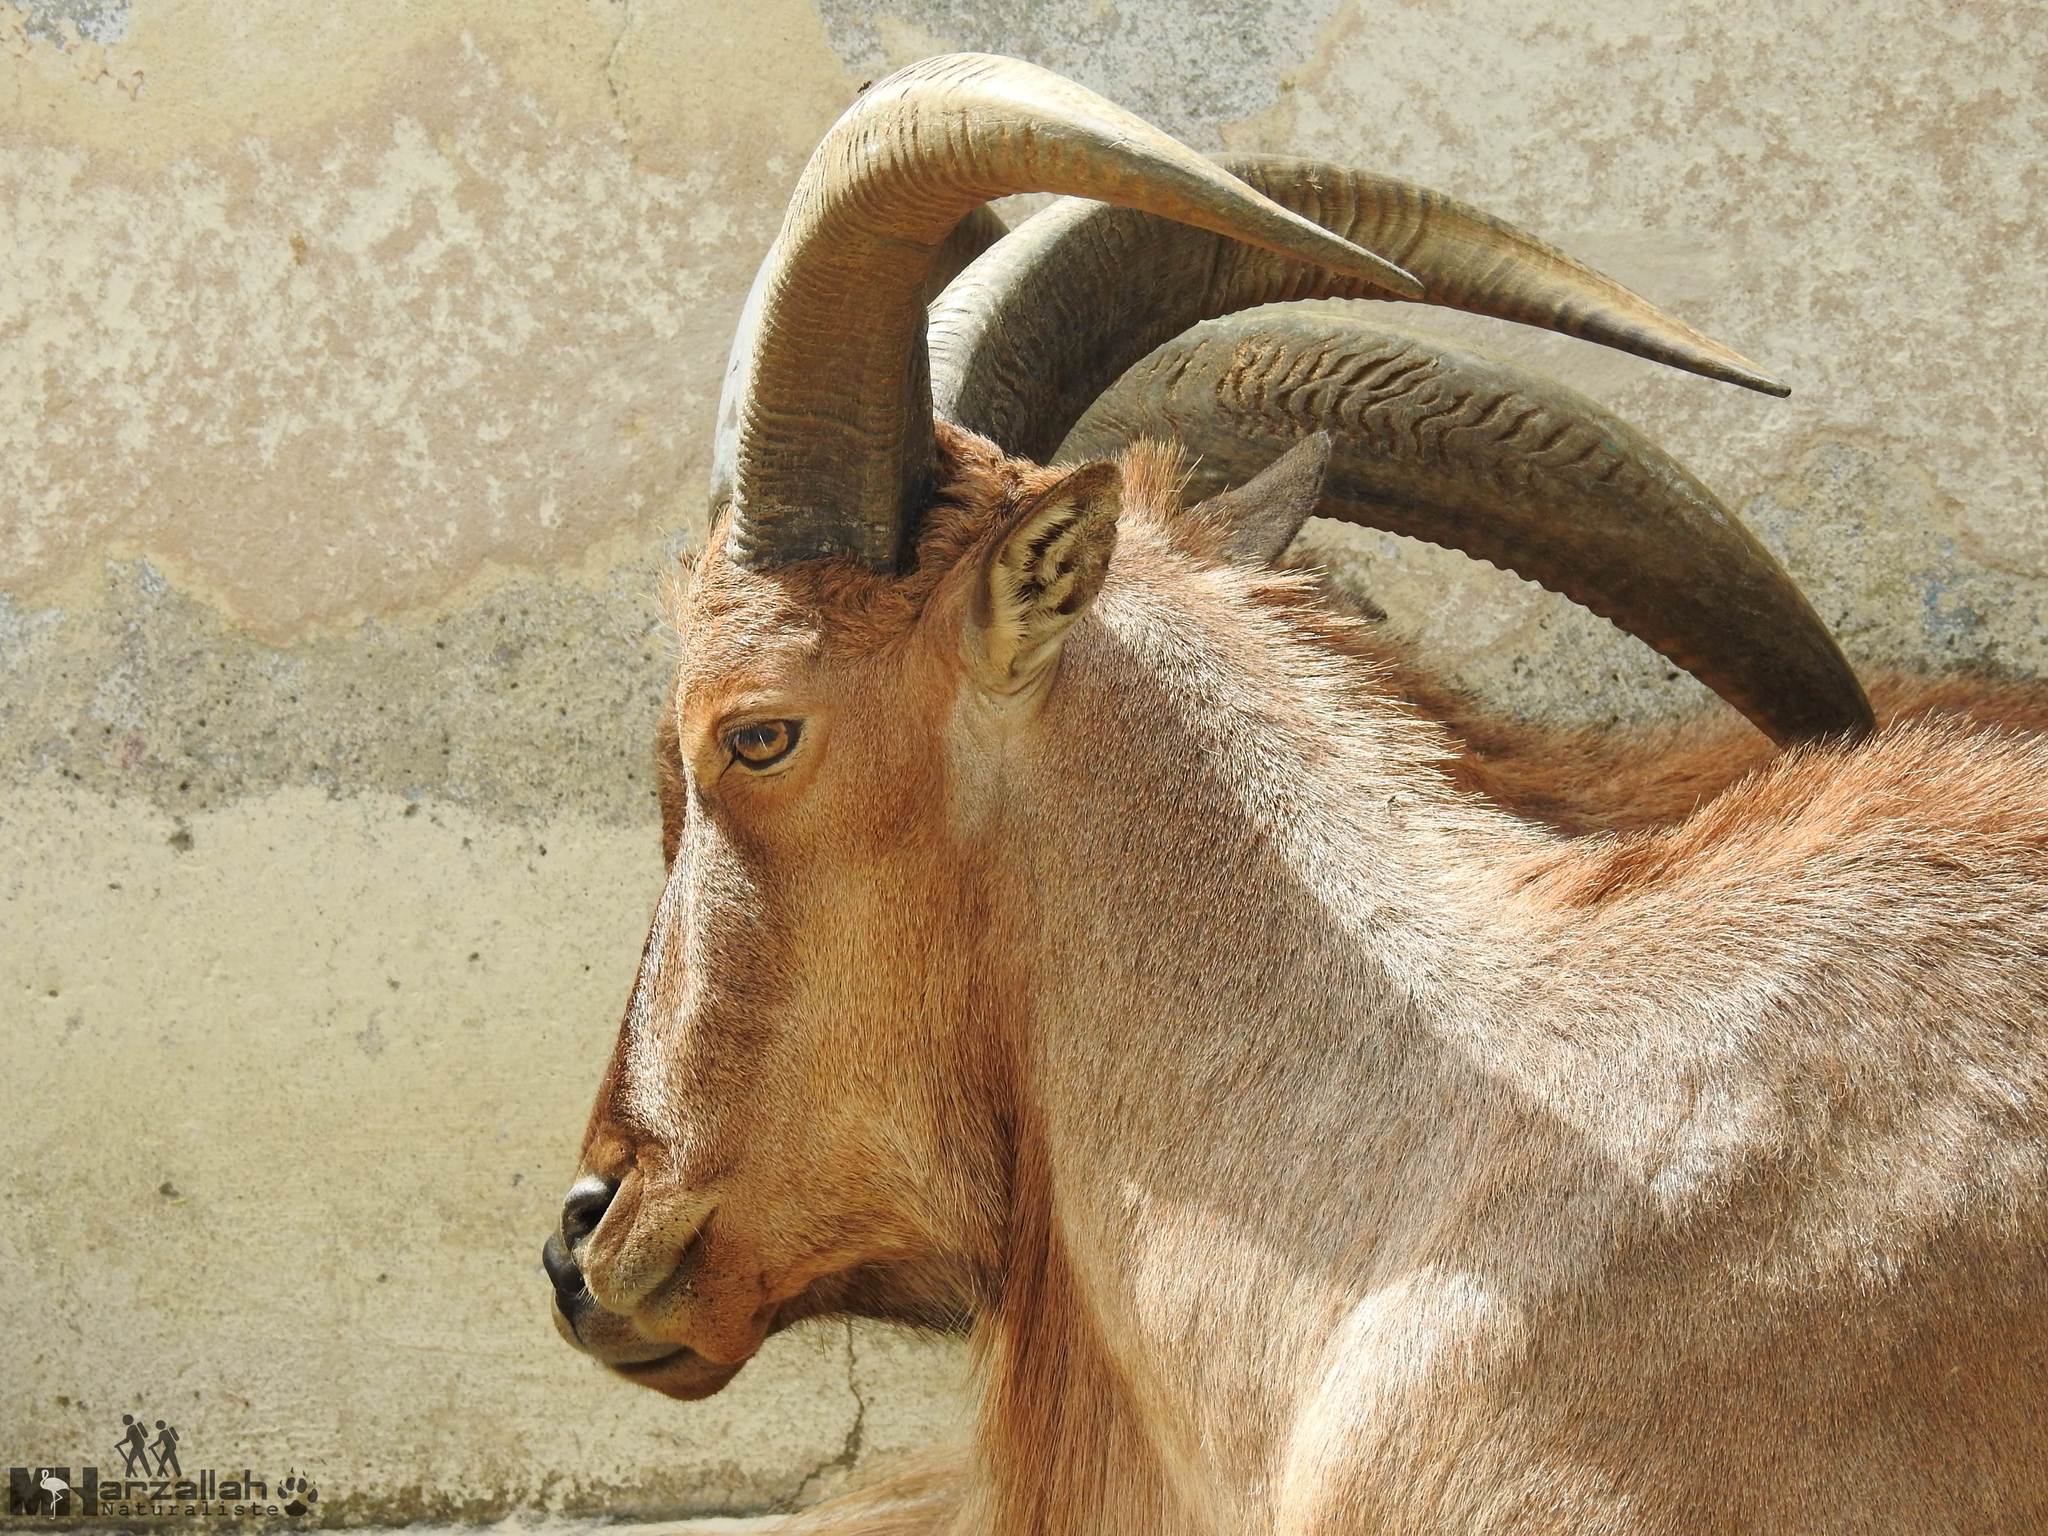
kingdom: Animalia
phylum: Chordata
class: Mammalia
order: Artiodactyla
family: Bovidae
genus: Ammotragus
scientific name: Ammotragus lervia
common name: Barbary sheep
